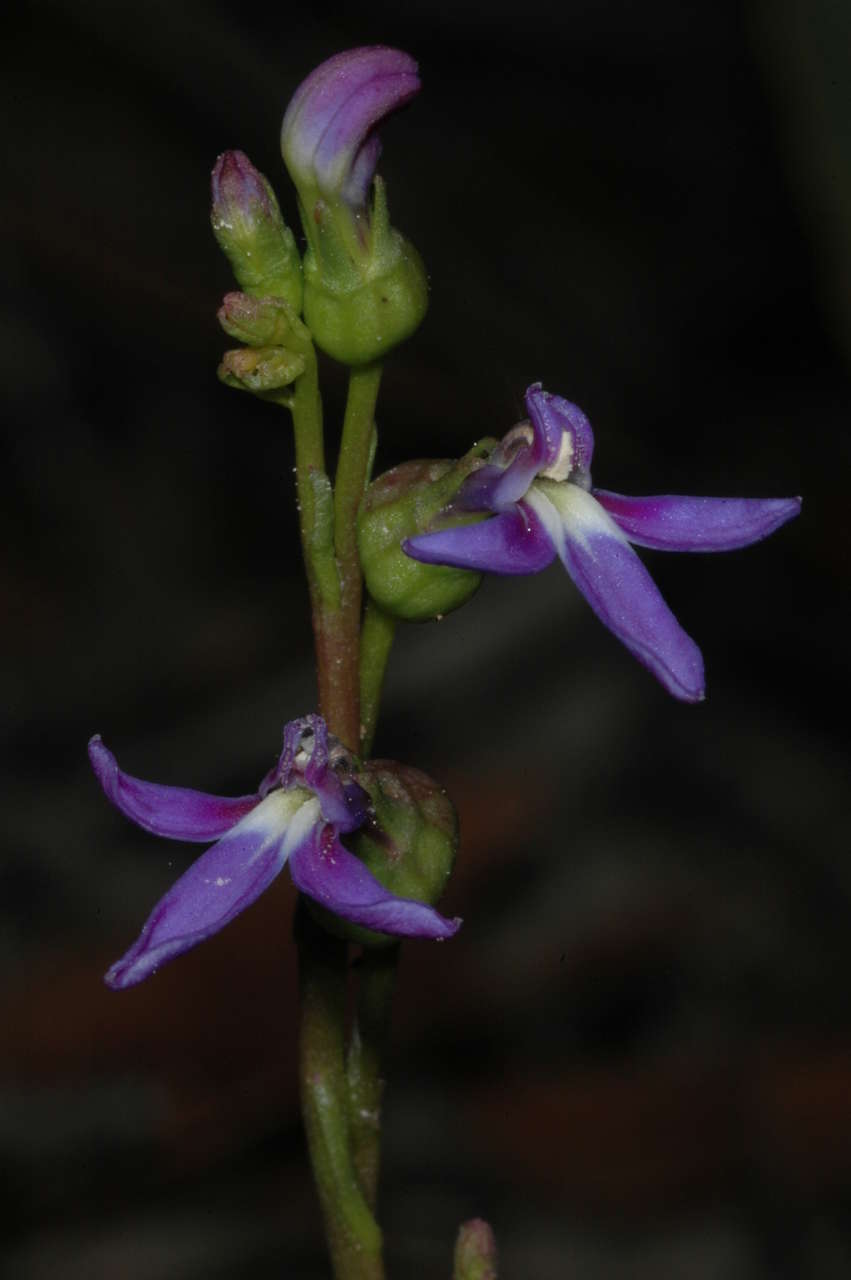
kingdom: Plantae
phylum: Tracheophyta
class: Magnoliopsida
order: Asterales
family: Campanulaceae
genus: Lobelia
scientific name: Lobelia gibbosa
